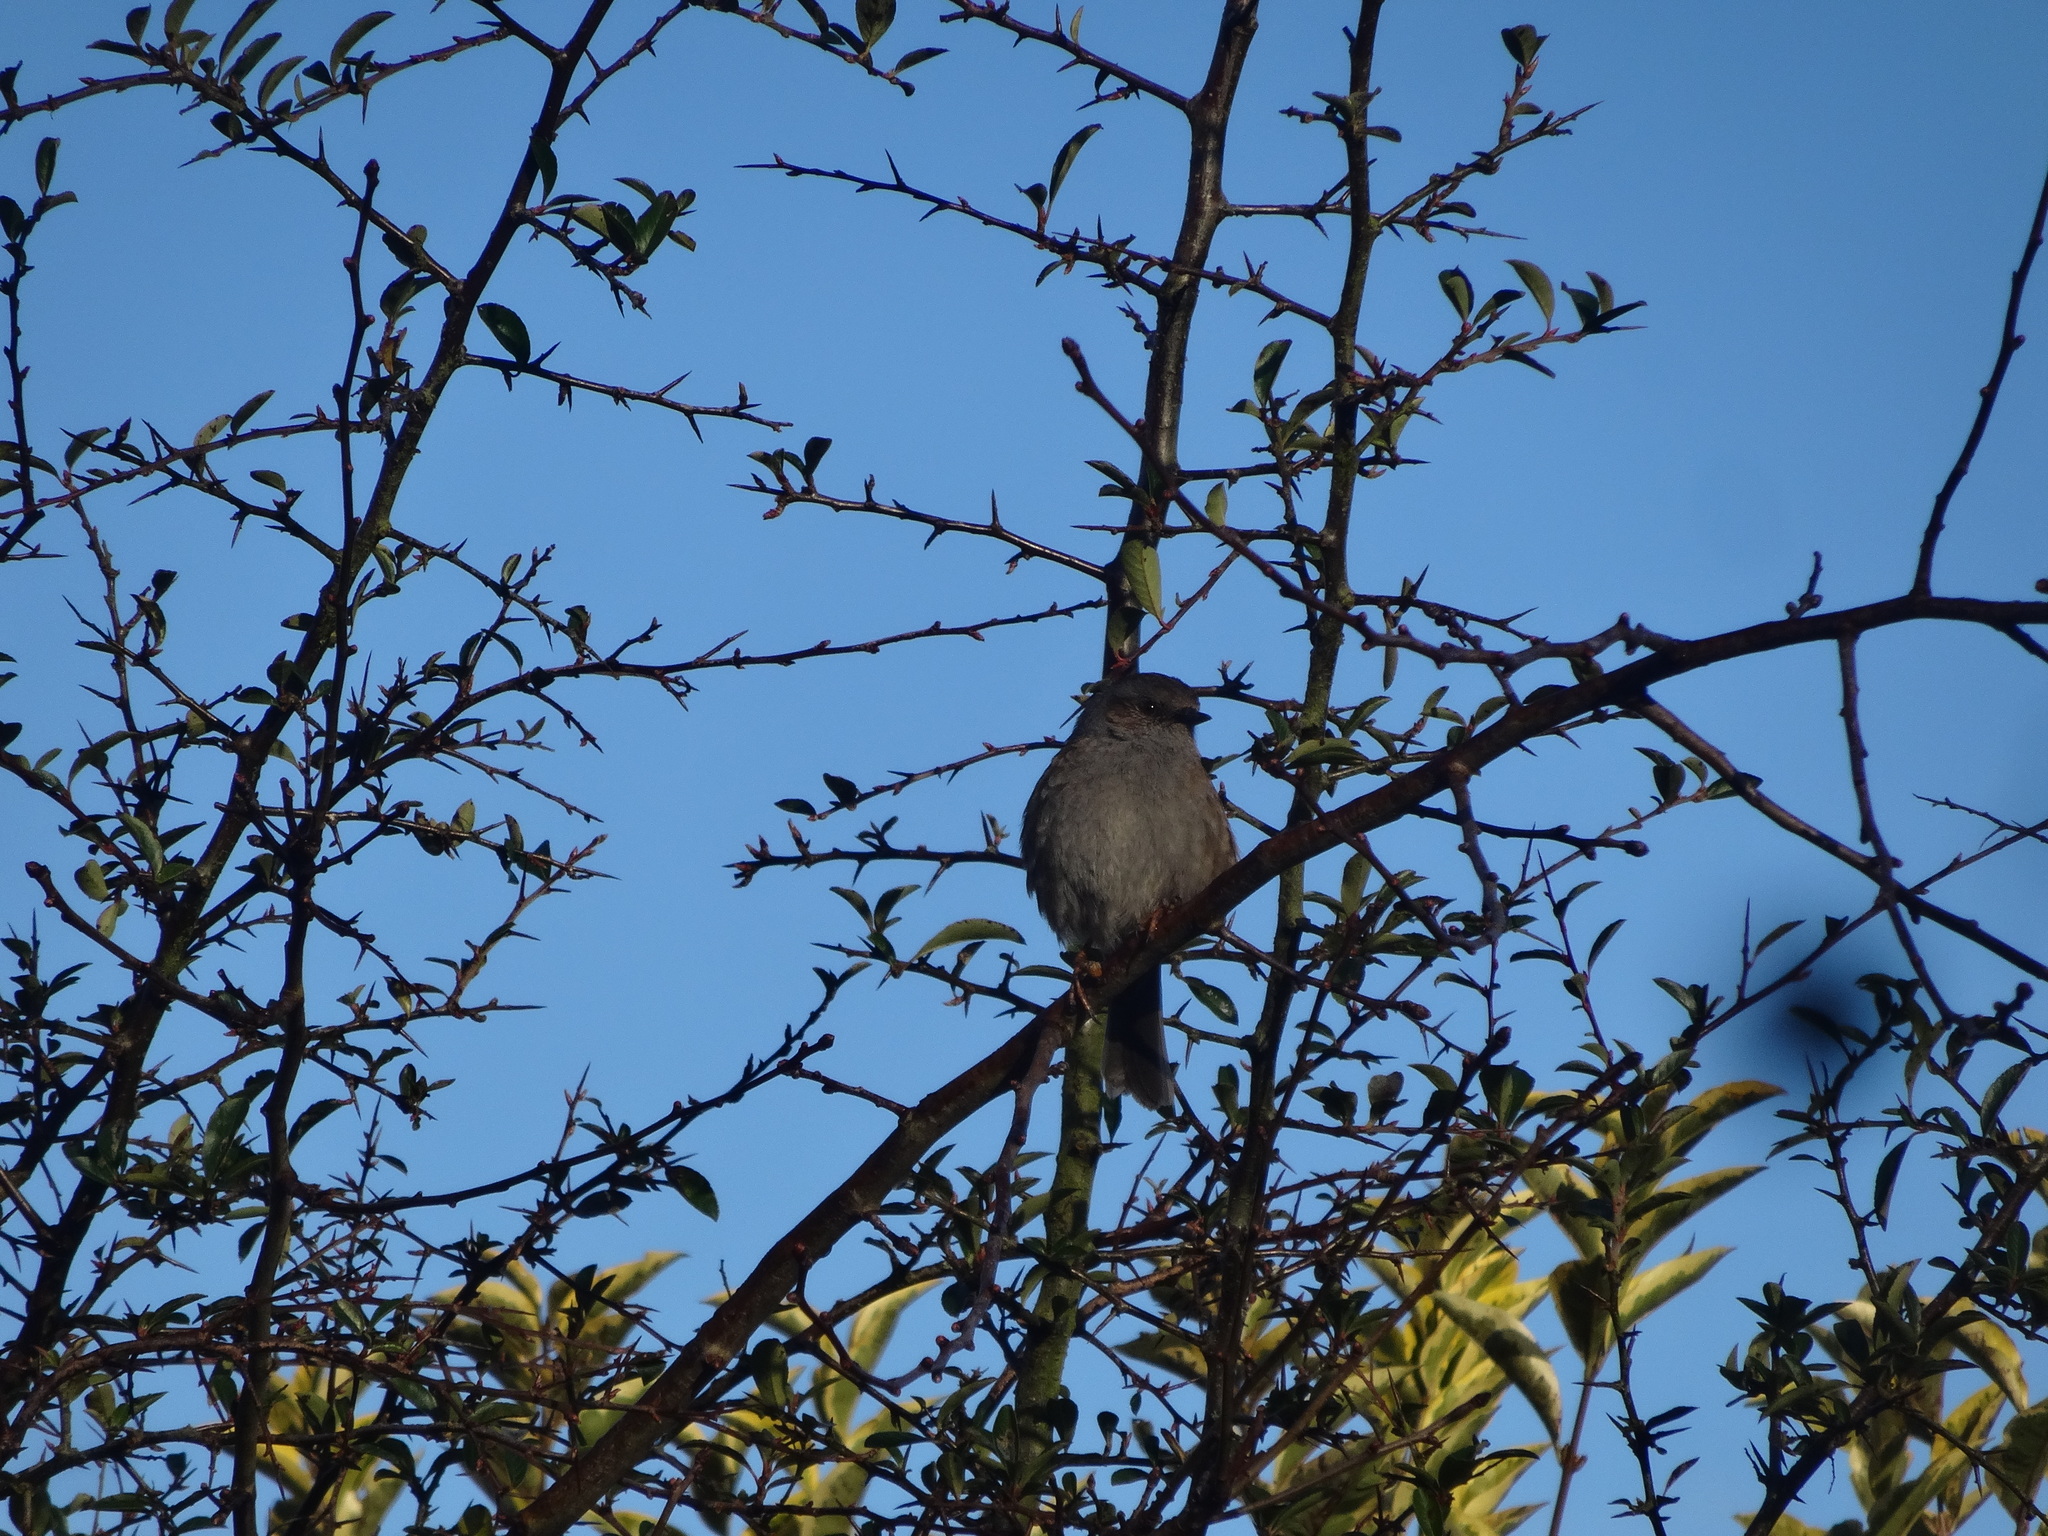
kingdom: Animalia
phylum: Chordata
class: Aves
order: Passeriformes
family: Prunellidae
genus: Prunella
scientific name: Prunella modularis
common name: Dunnock
